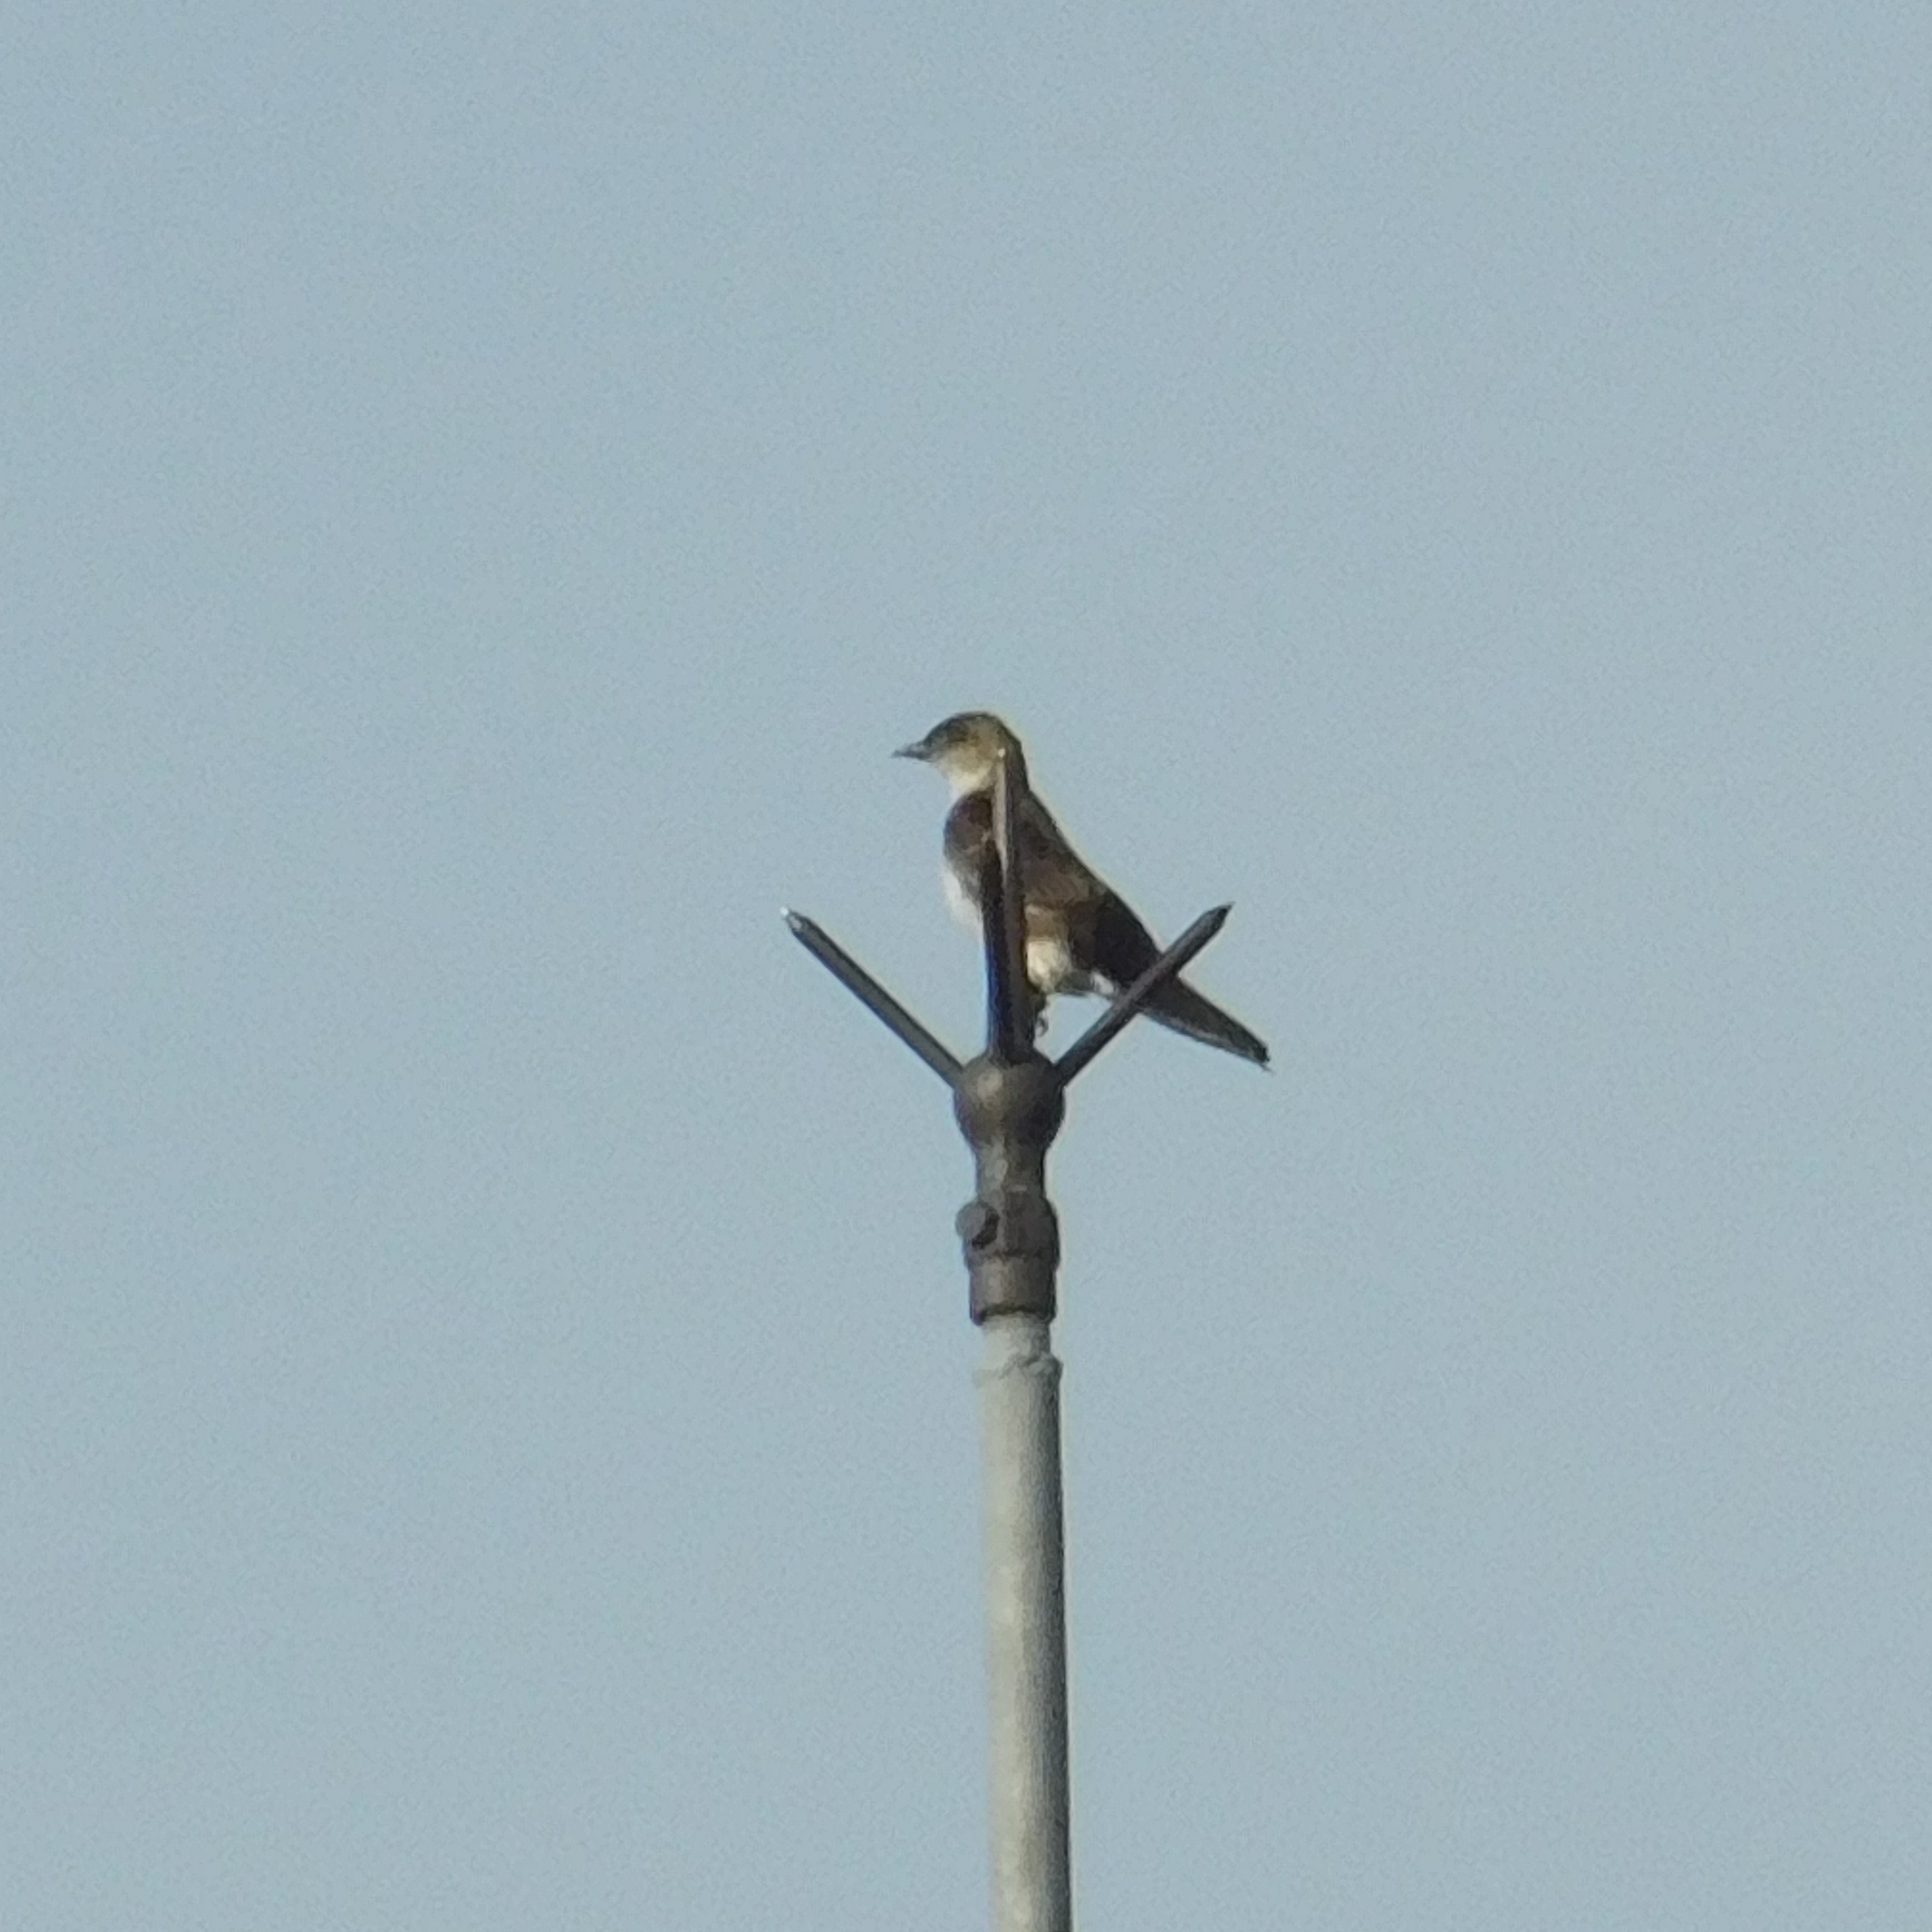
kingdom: Animalia
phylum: Chordata
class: Aves
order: Passeriformes
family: Hirundinidae
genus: Progne
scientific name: Progne tapera
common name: Brown-chested martin
